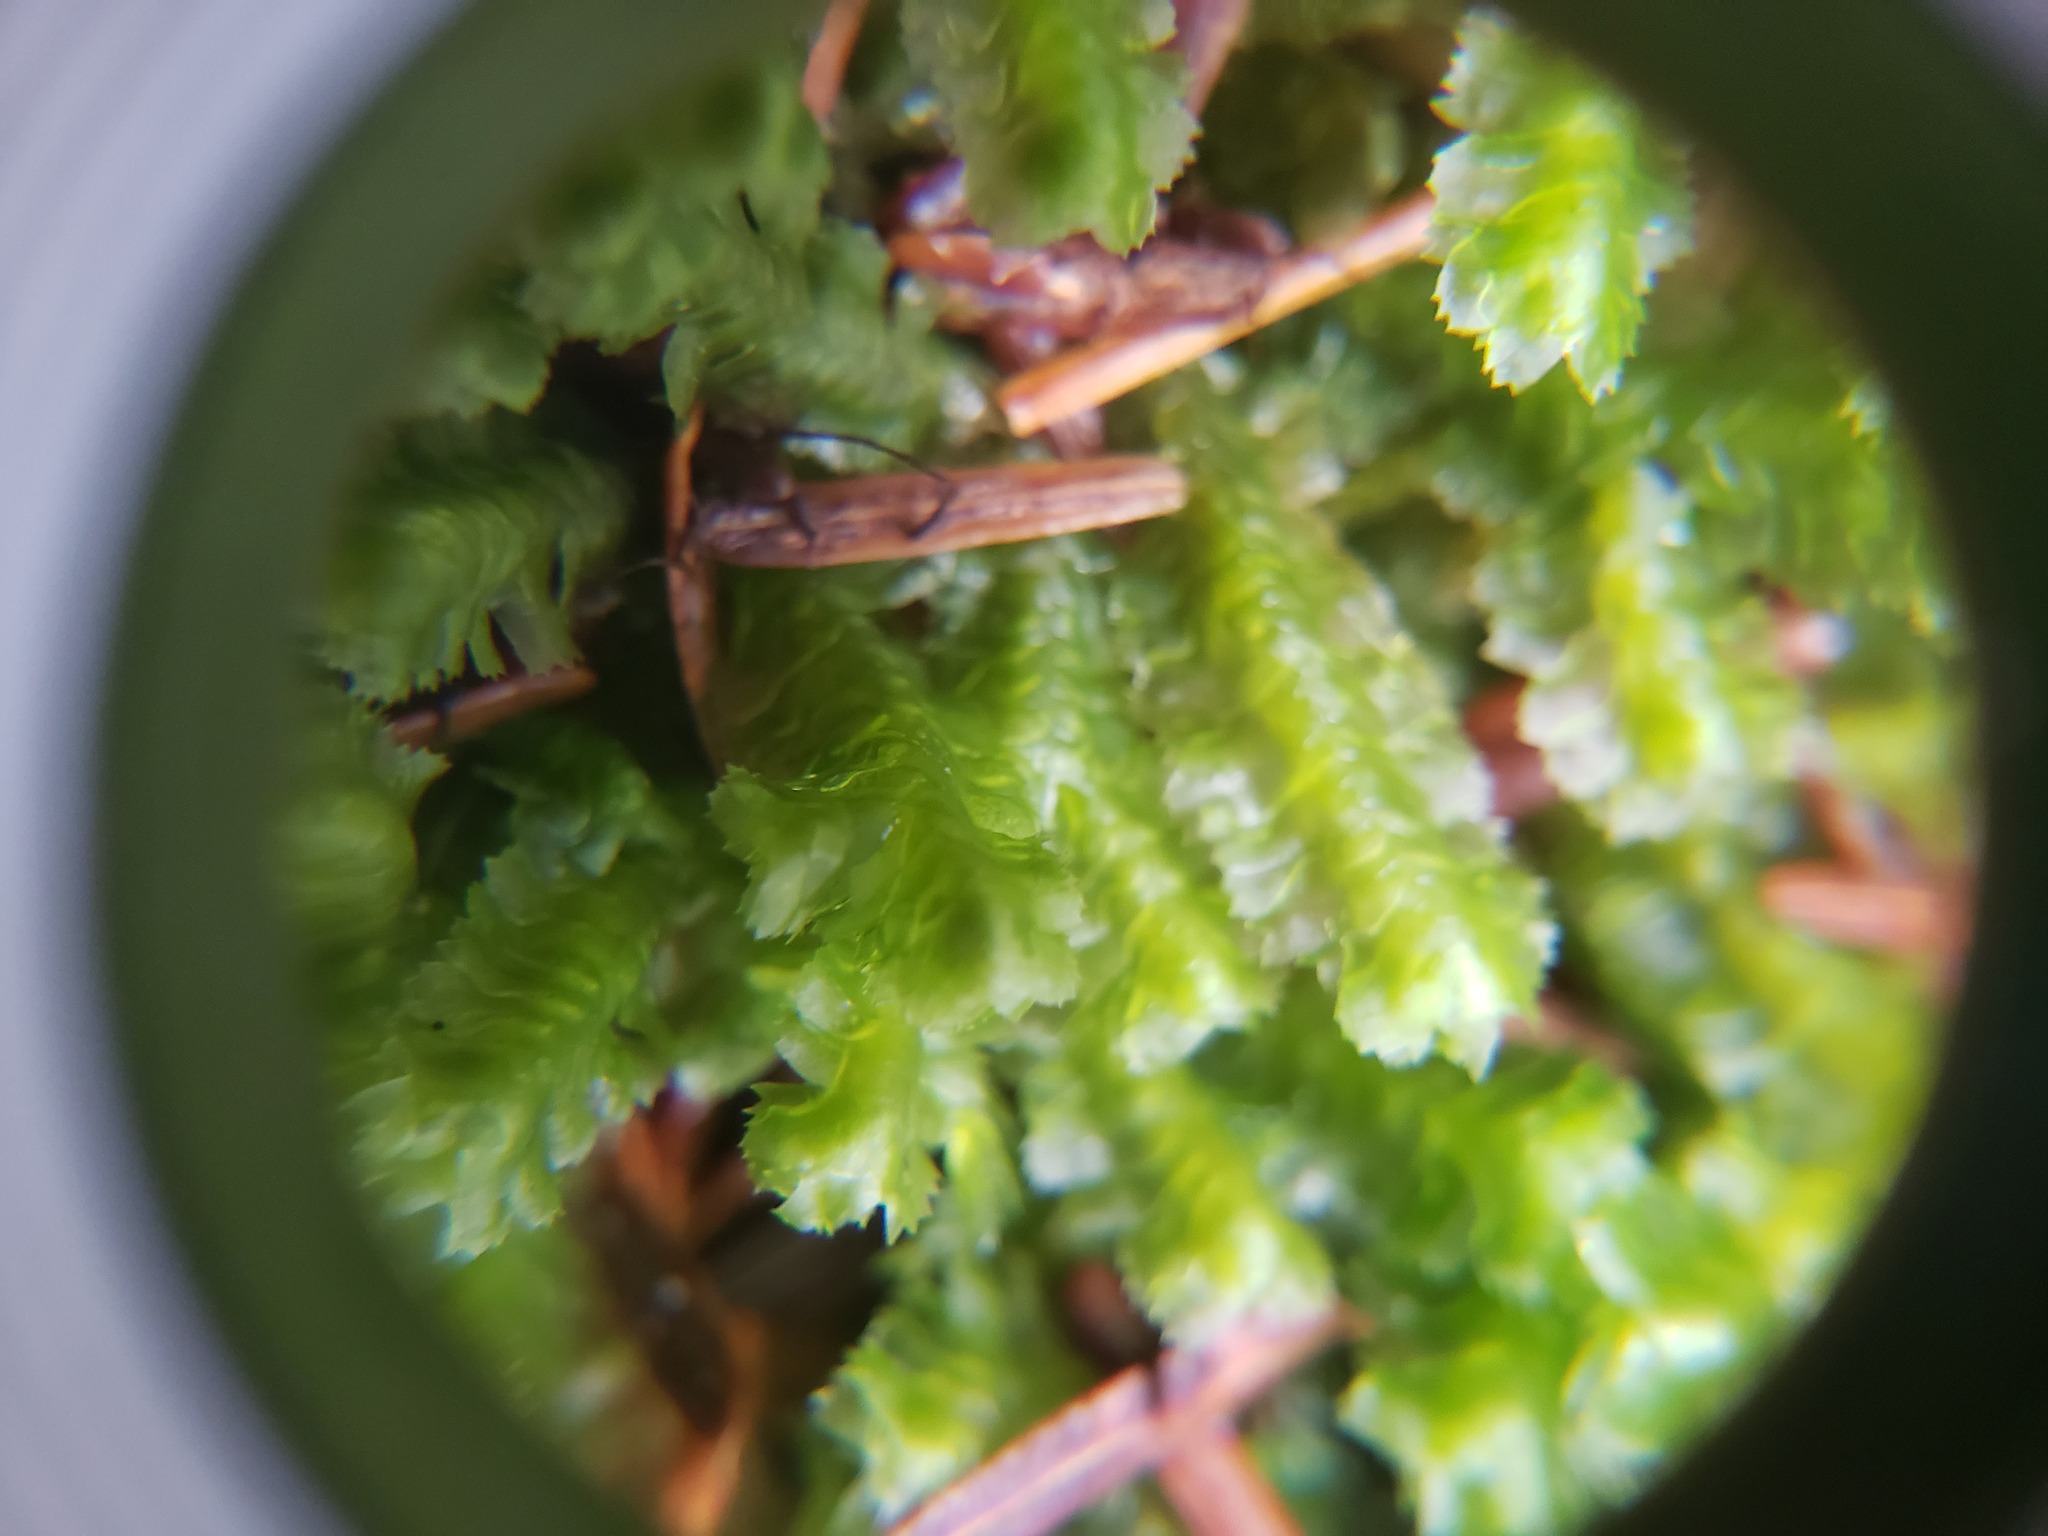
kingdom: Plantae
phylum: Marchantiophyta
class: Jungermanniopsida
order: Jungermanniales
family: Lepidoziaceae
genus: Bazzania
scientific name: Bazzania trilobata
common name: Three-lobed whipwort
